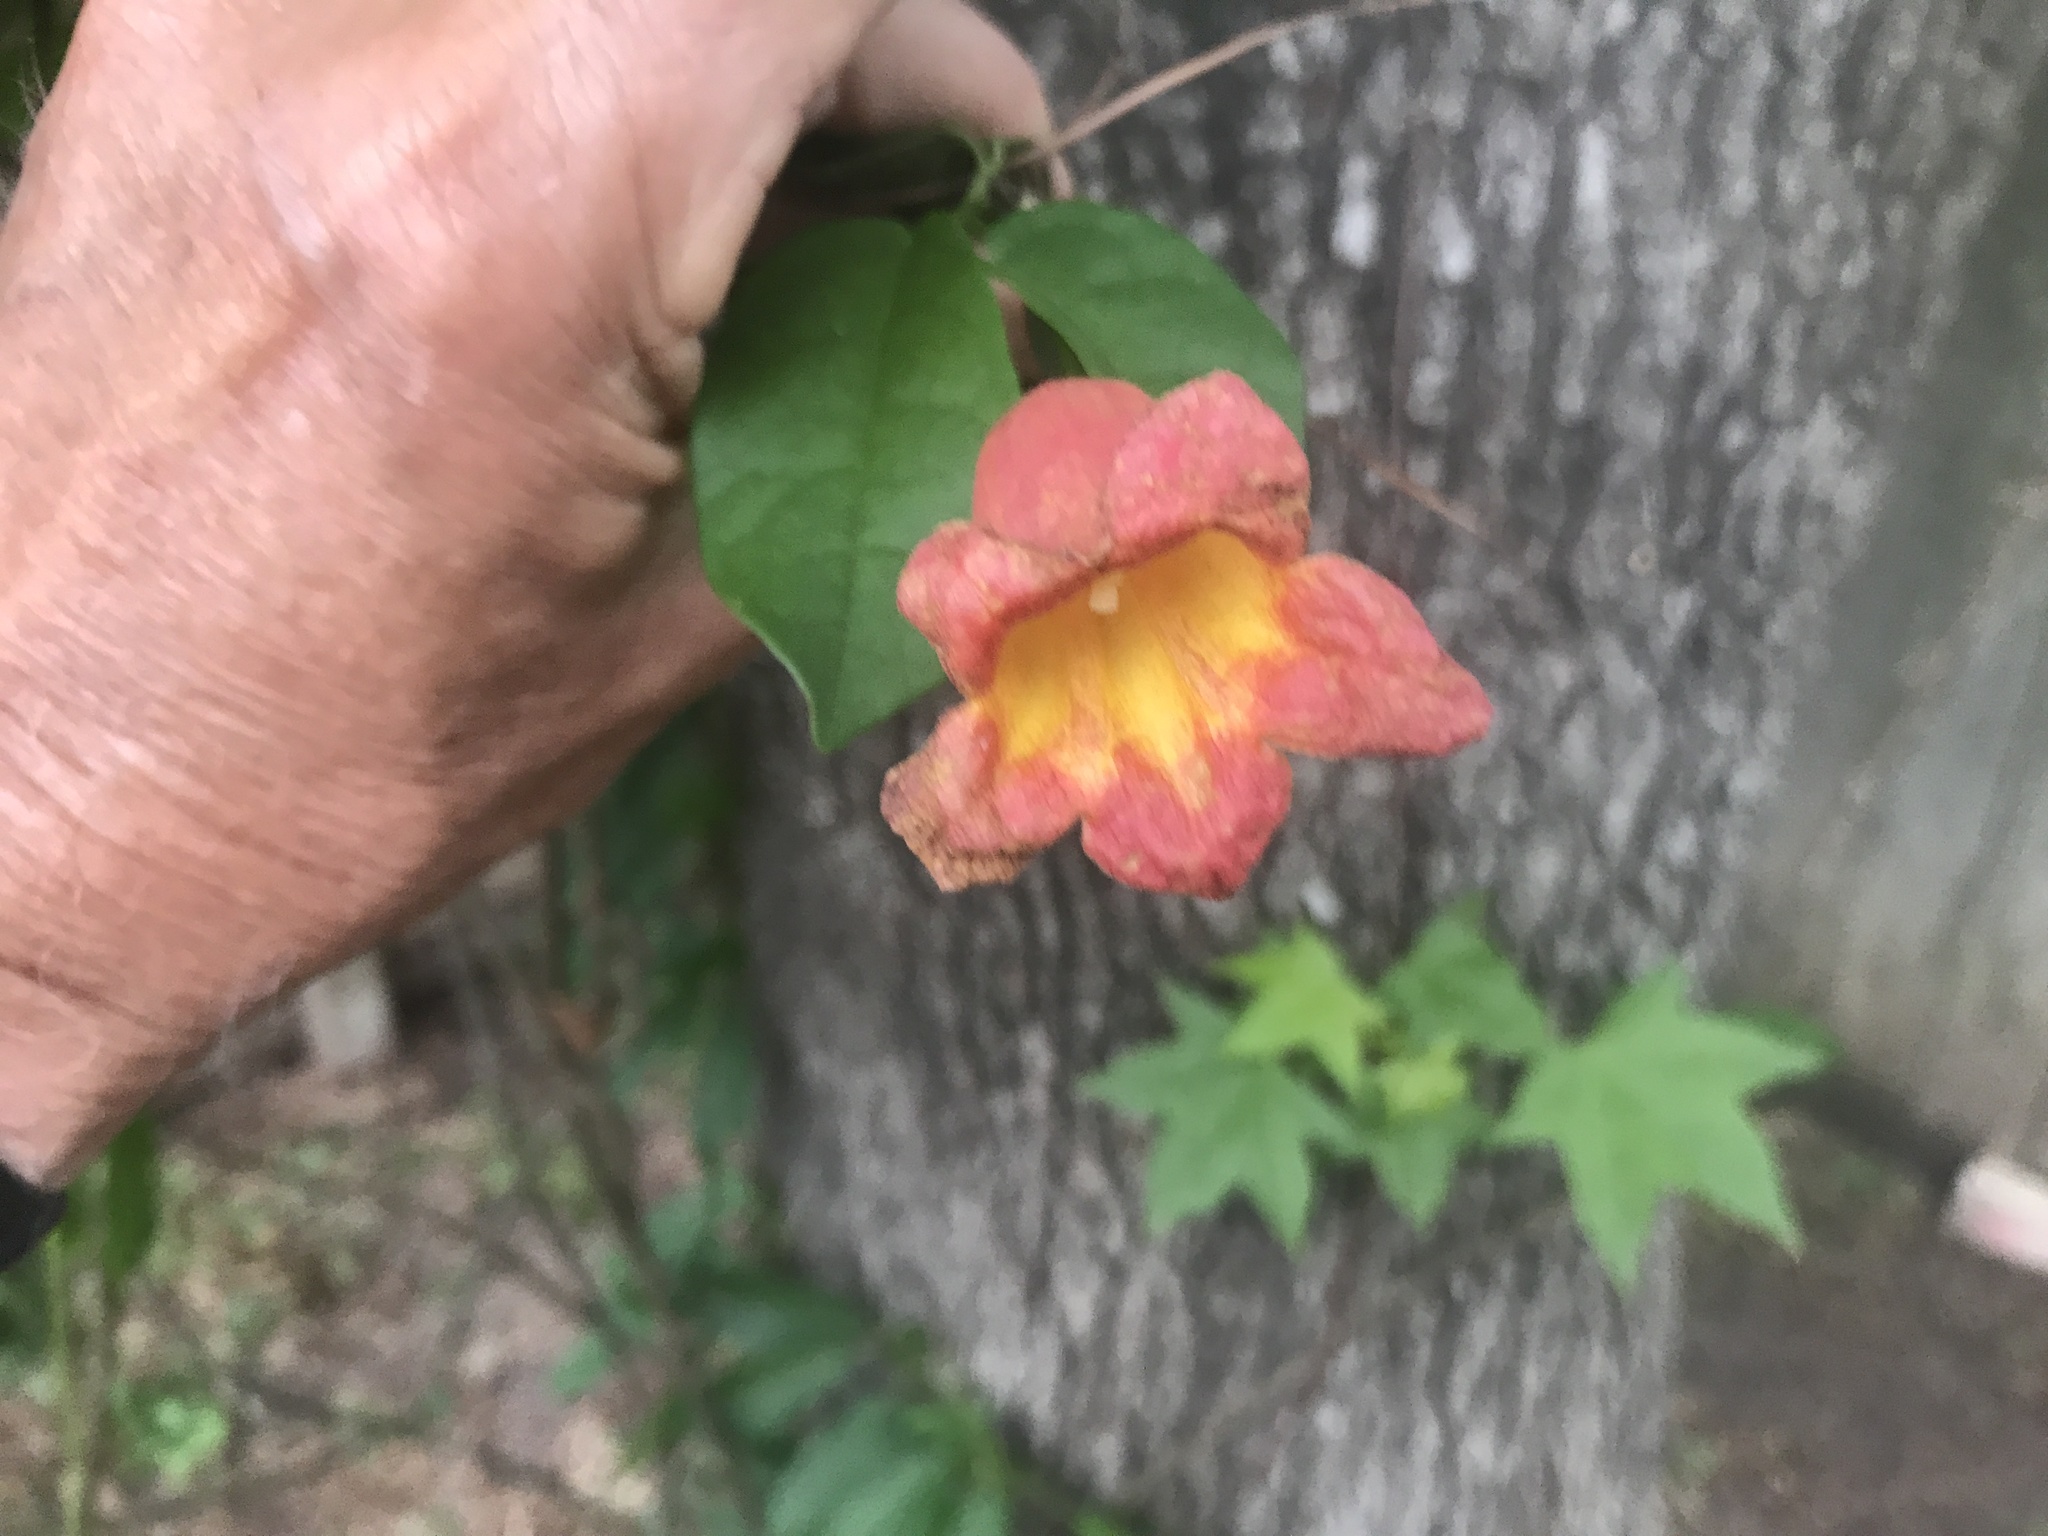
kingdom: Plantae
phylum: Tracheophyta
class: Magnoliopsida
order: Lamiales
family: Bignoniaceae
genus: Bignonia
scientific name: Bignonia capreolata
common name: Crossvine
